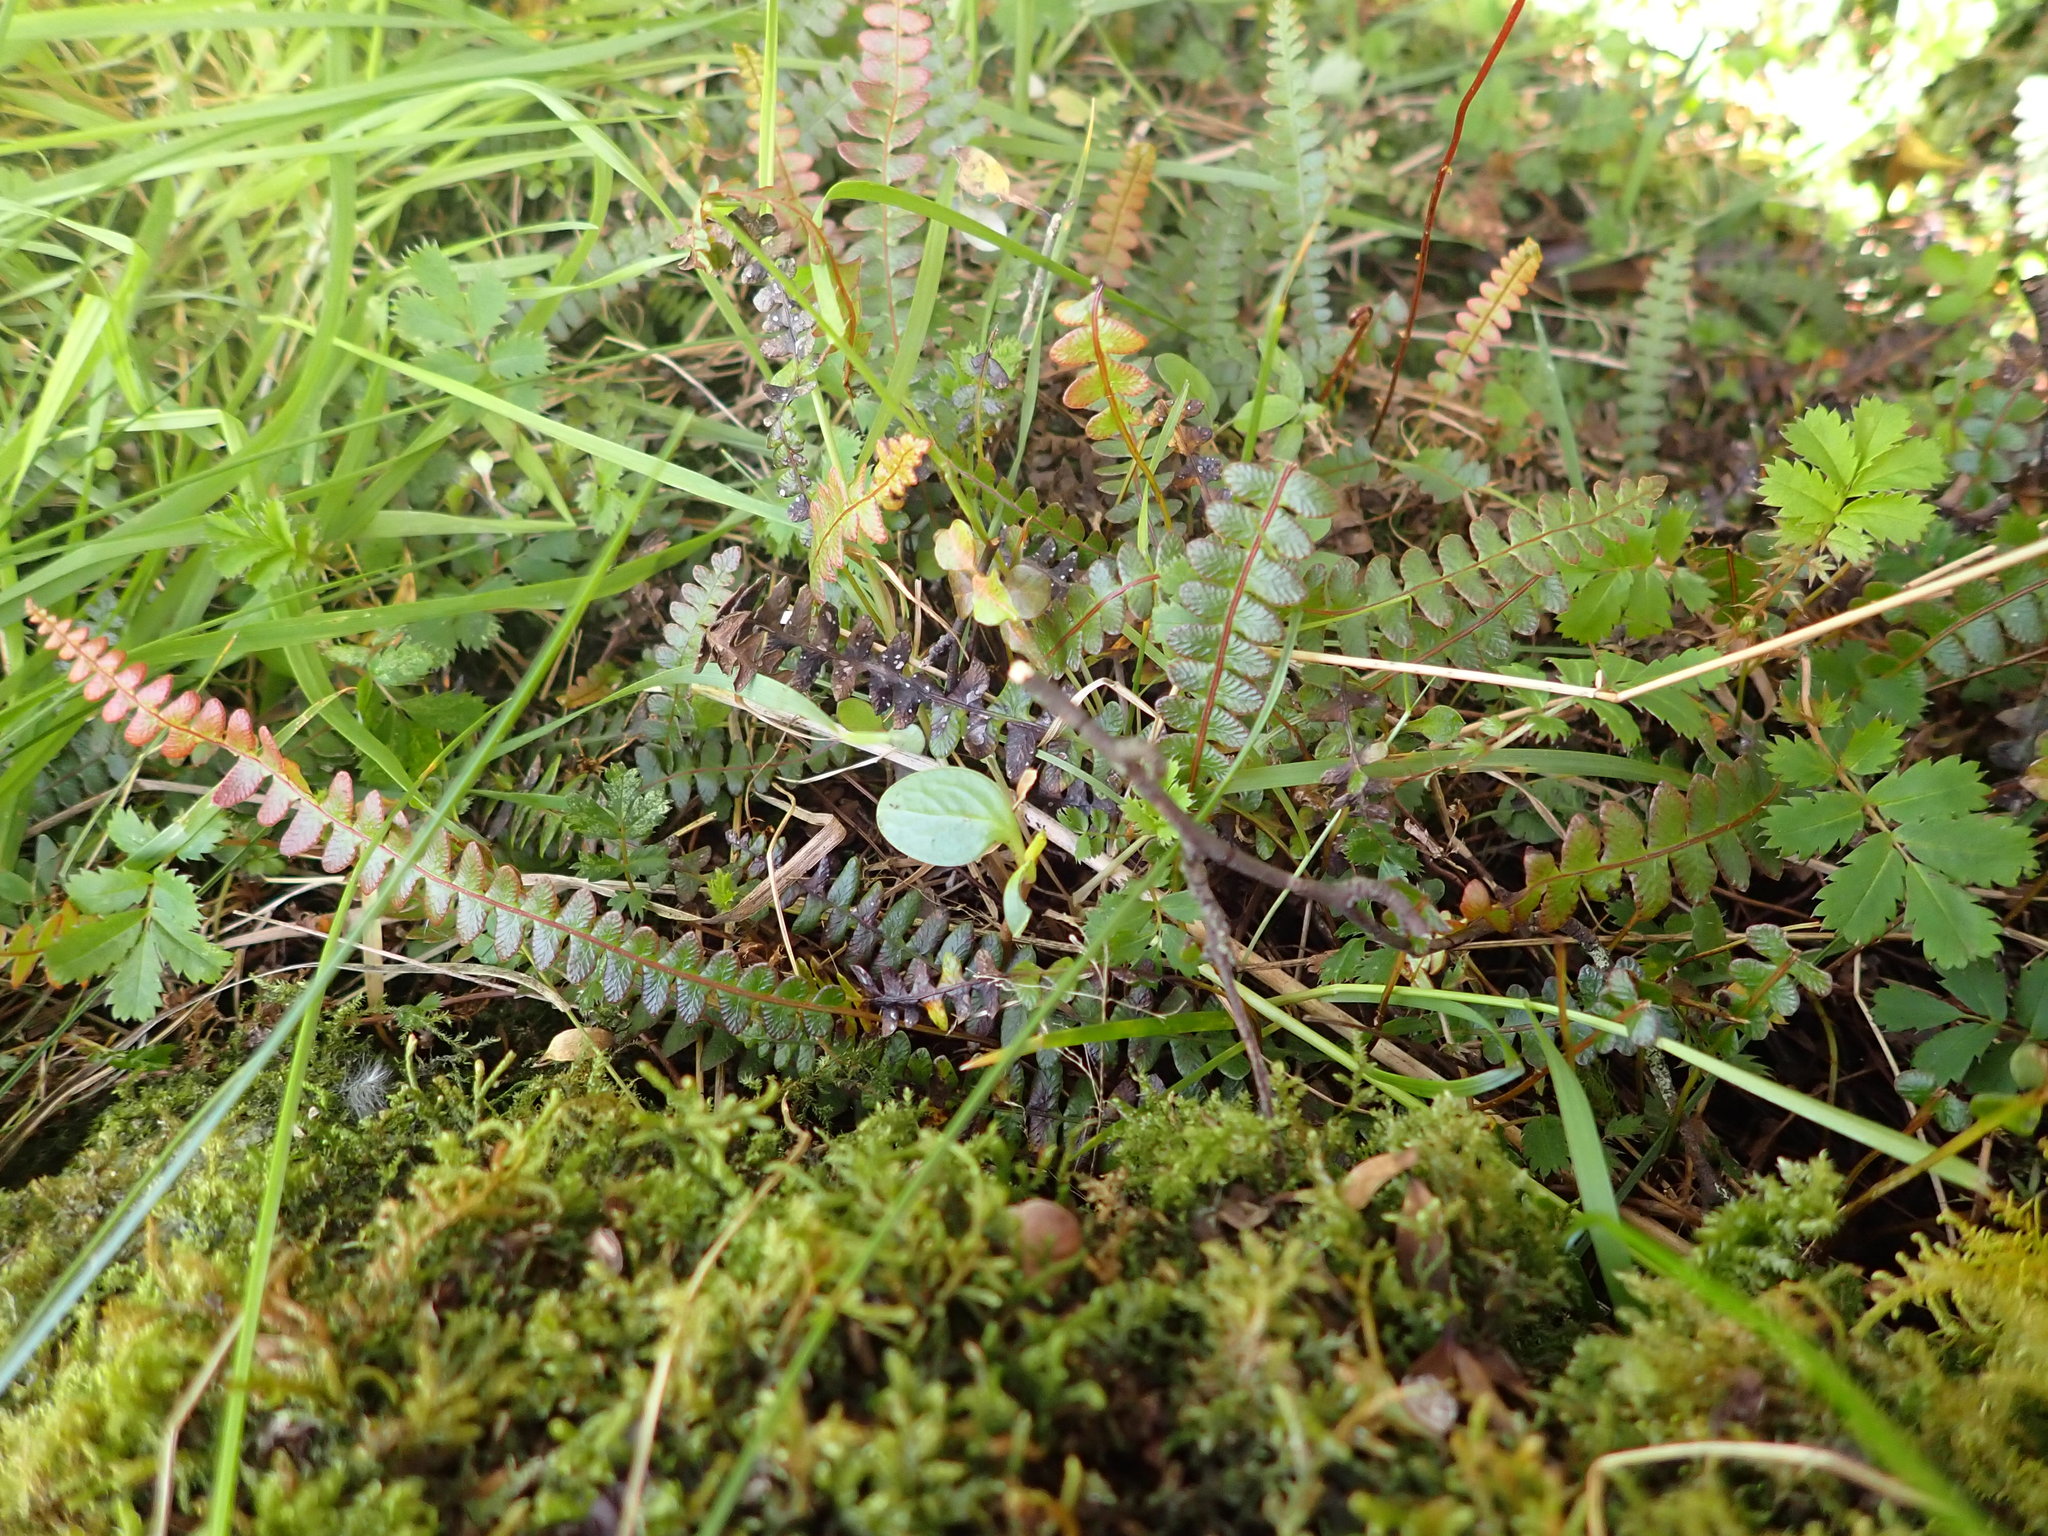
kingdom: Plantae
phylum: Tracheophyta
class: Polypodiopsida
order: Polypodiales
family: Blechnaceae
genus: Austroblechnum
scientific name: Austroblechnum penna-marina
